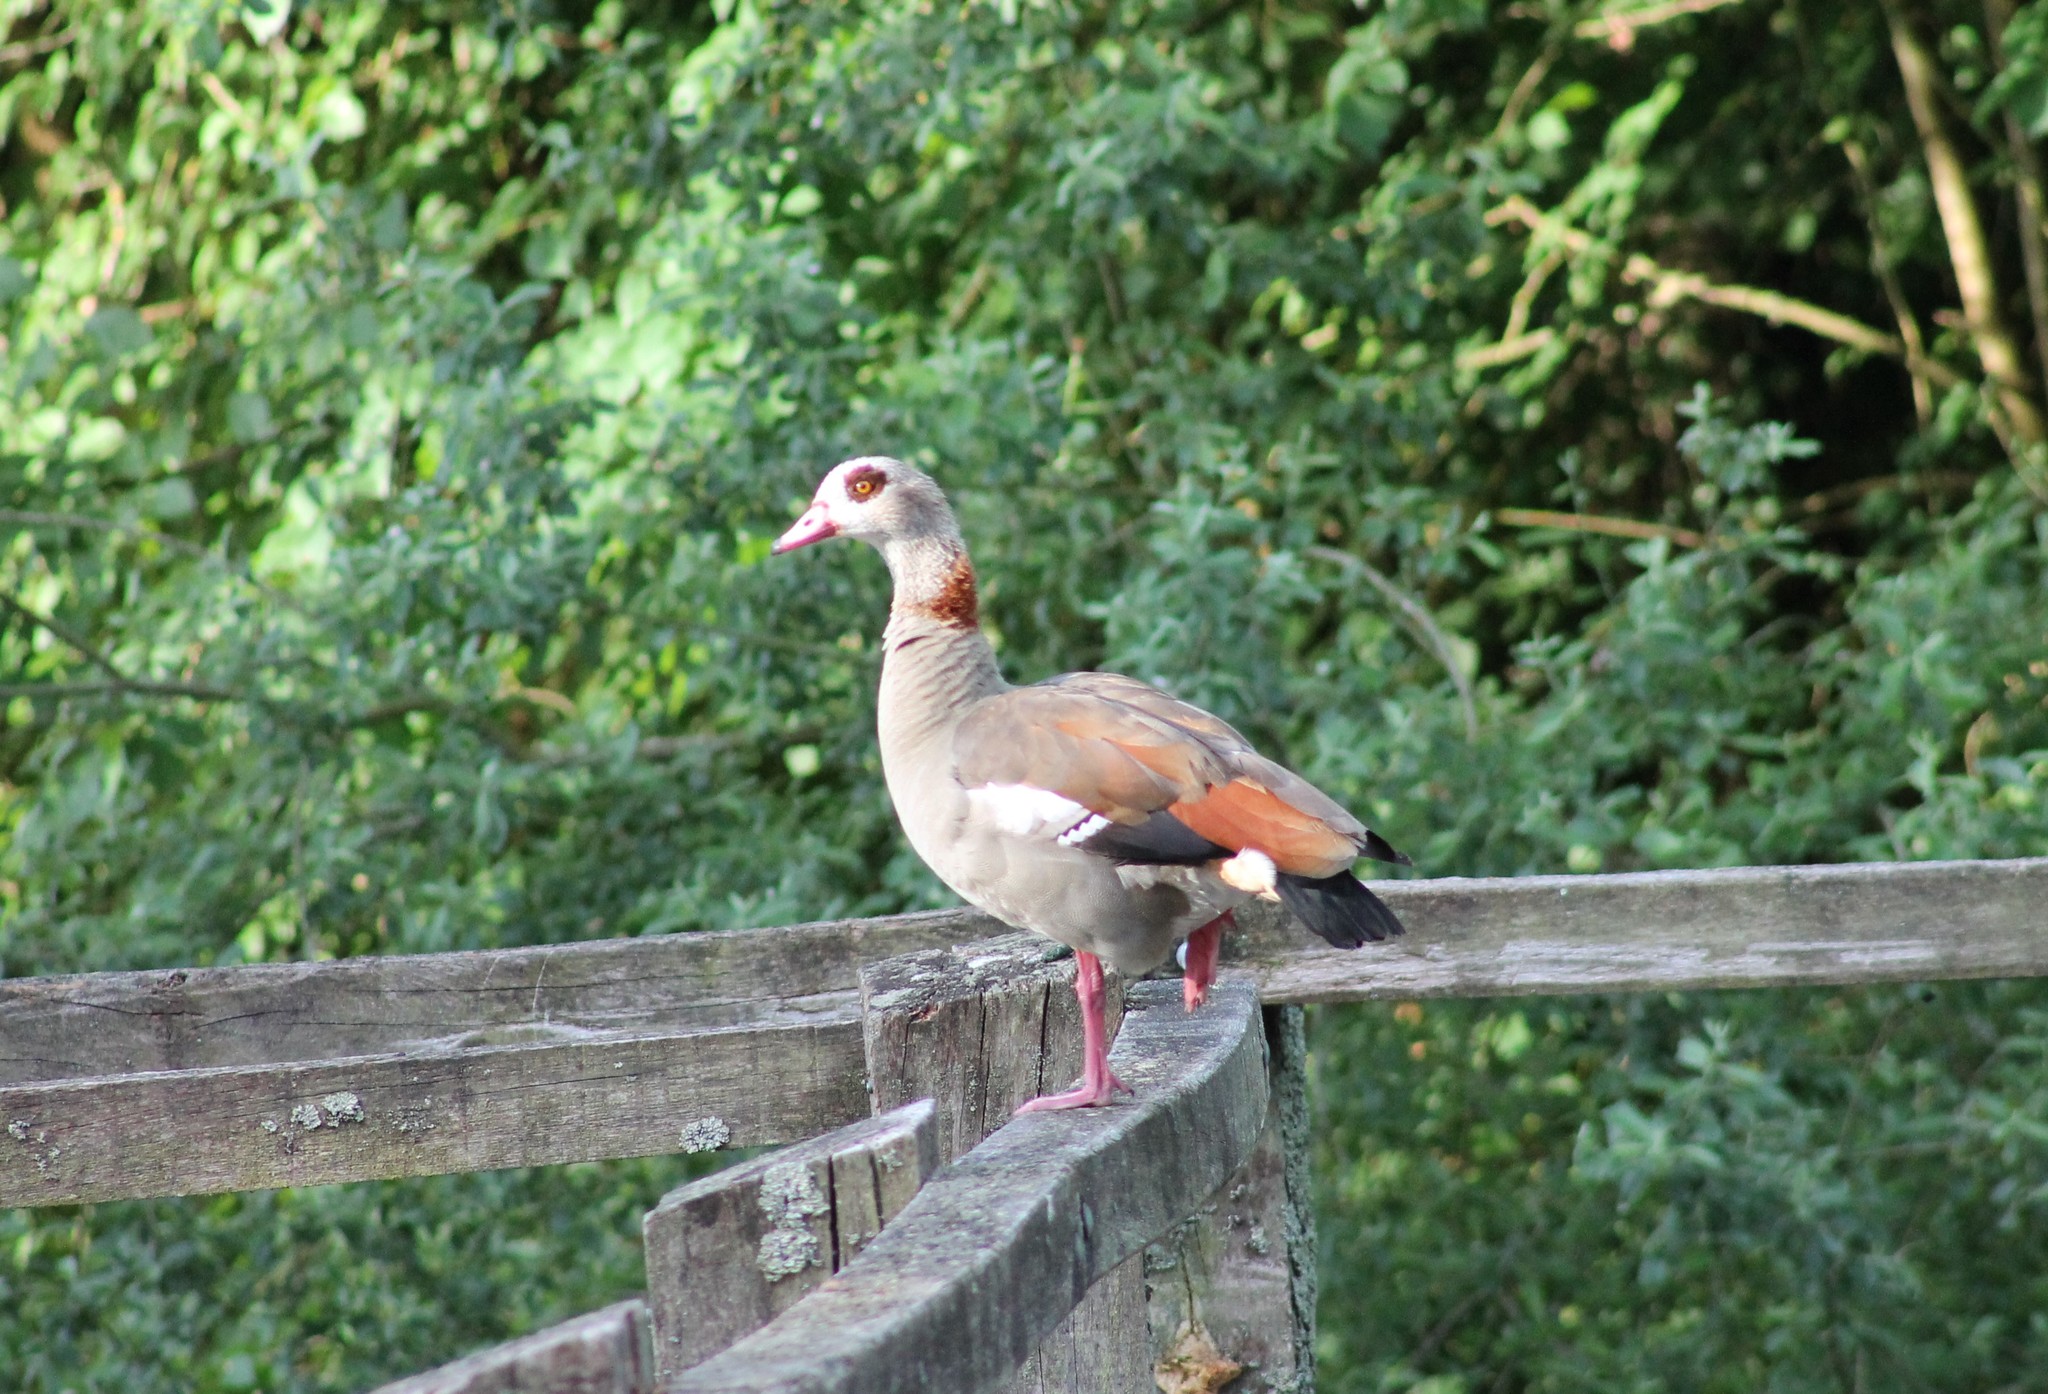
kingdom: Animalia
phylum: Chordata
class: Aves
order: Anseriformes
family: Anatidae
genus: Alopochen
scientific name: Alopochen aegyptiaca
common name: Egyptian goose
